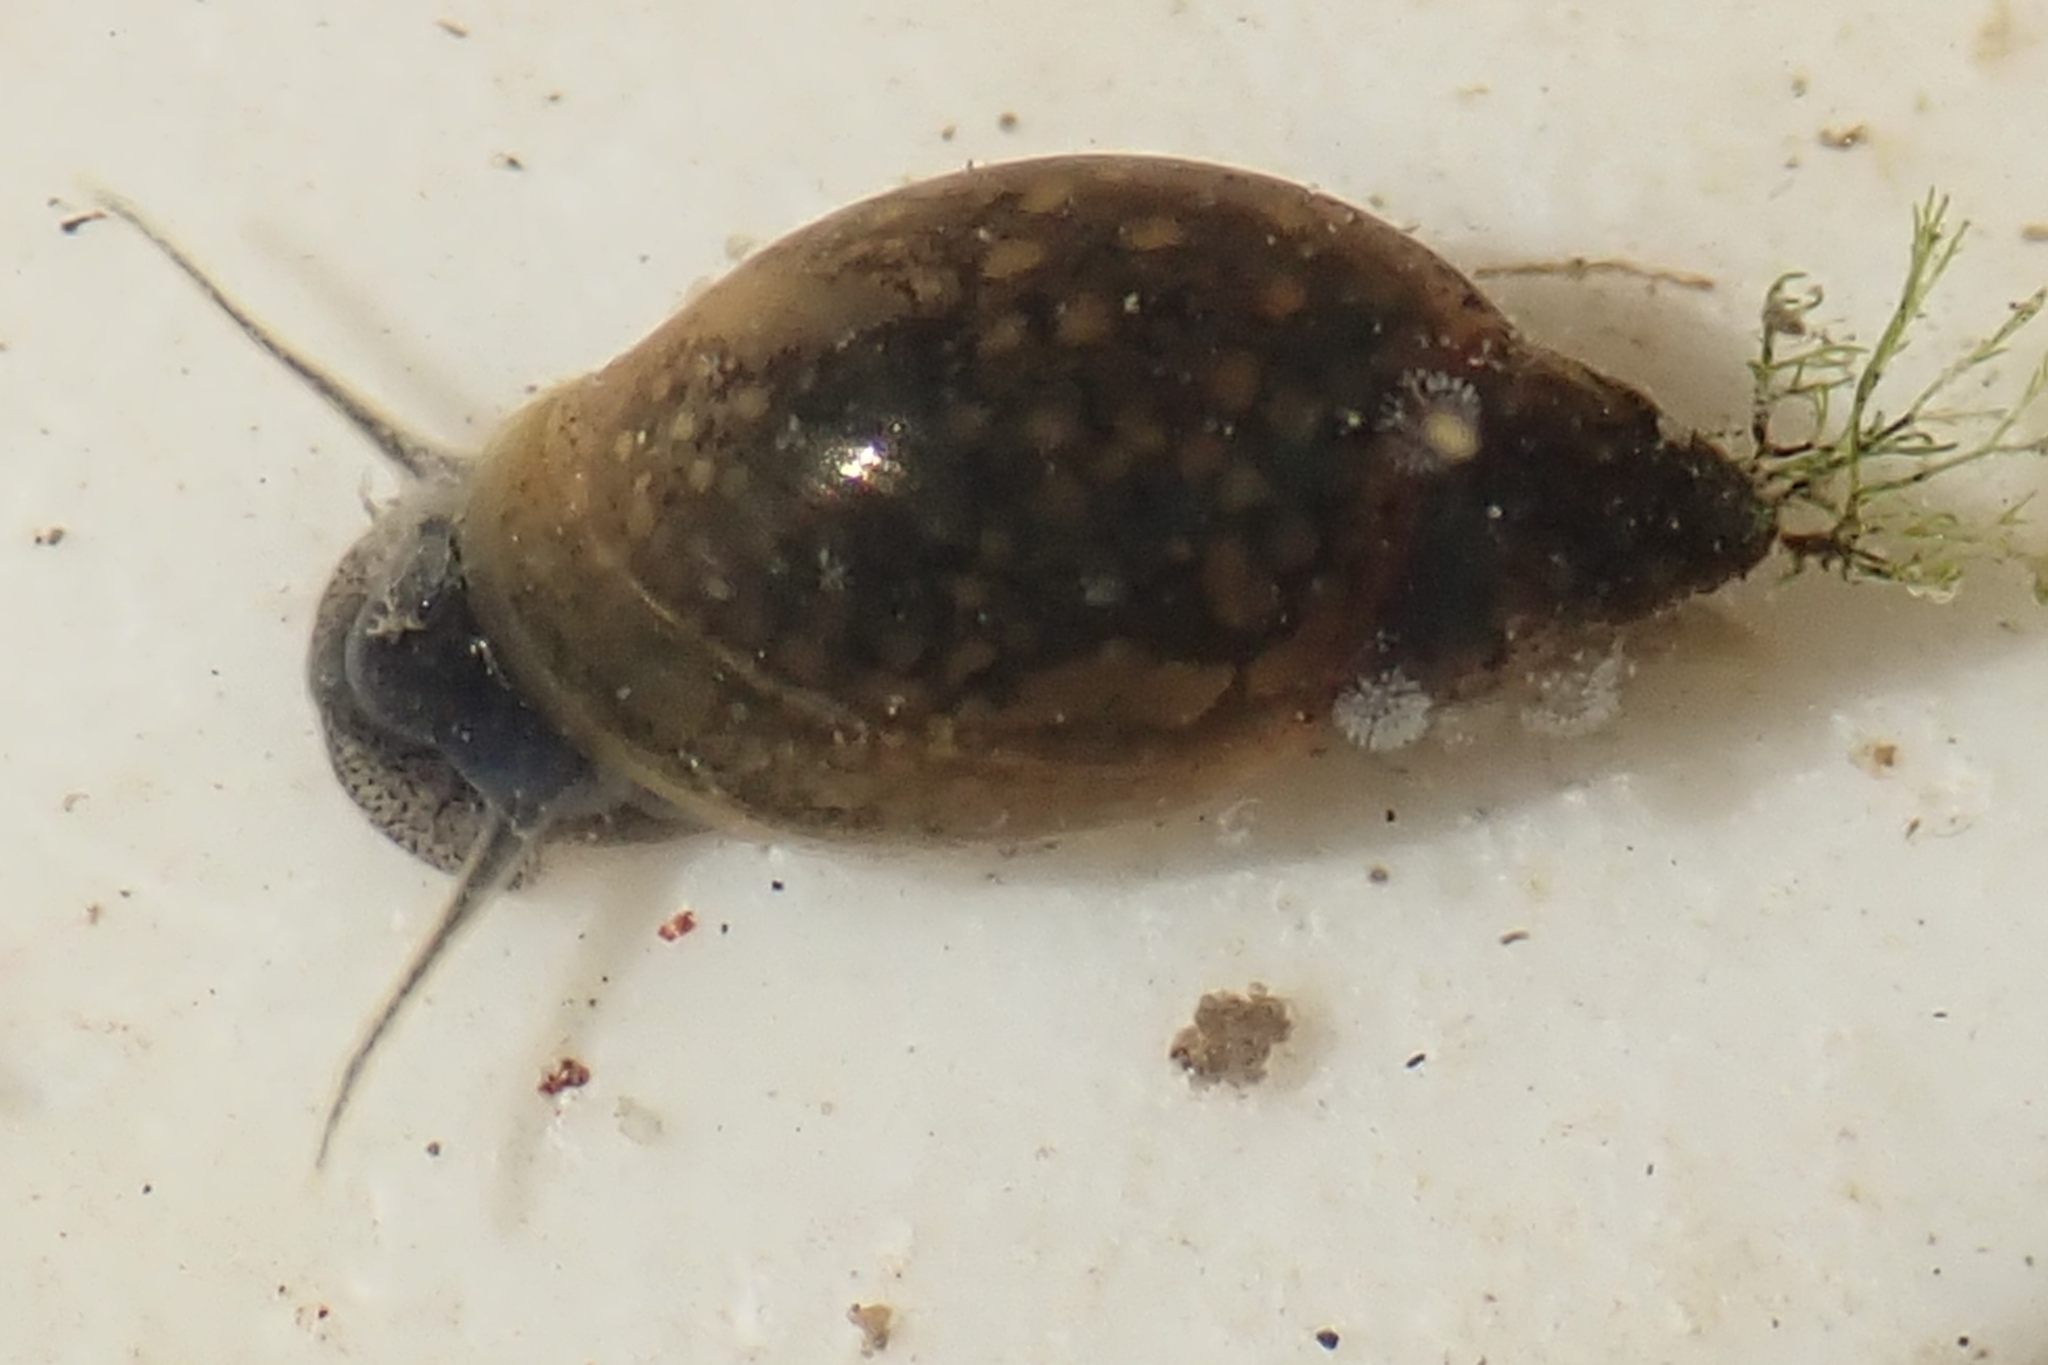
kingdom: Animalia
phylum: Mollusca
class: Gastropoda
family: Physidae
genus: Physella
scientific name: Physella acuta
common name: European physa
